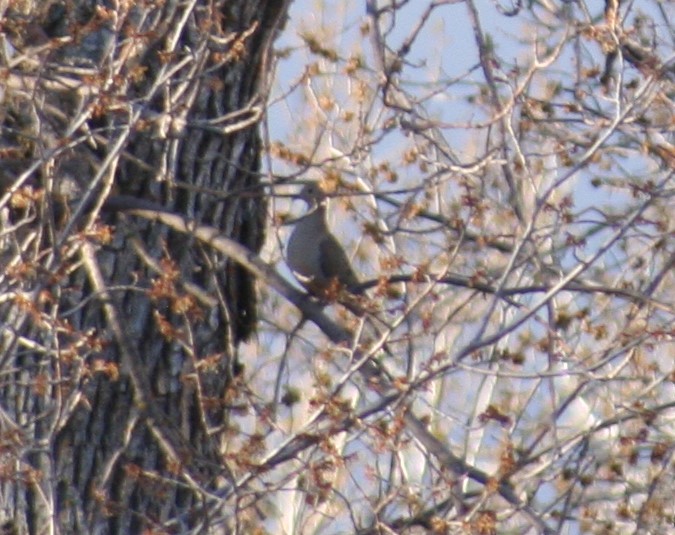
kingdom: Animalia
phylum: Chordata
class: Aves
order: Columbiformes
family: Columbidae
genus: Zenaida
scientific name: Zenaida macroura
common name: Mourning dove
